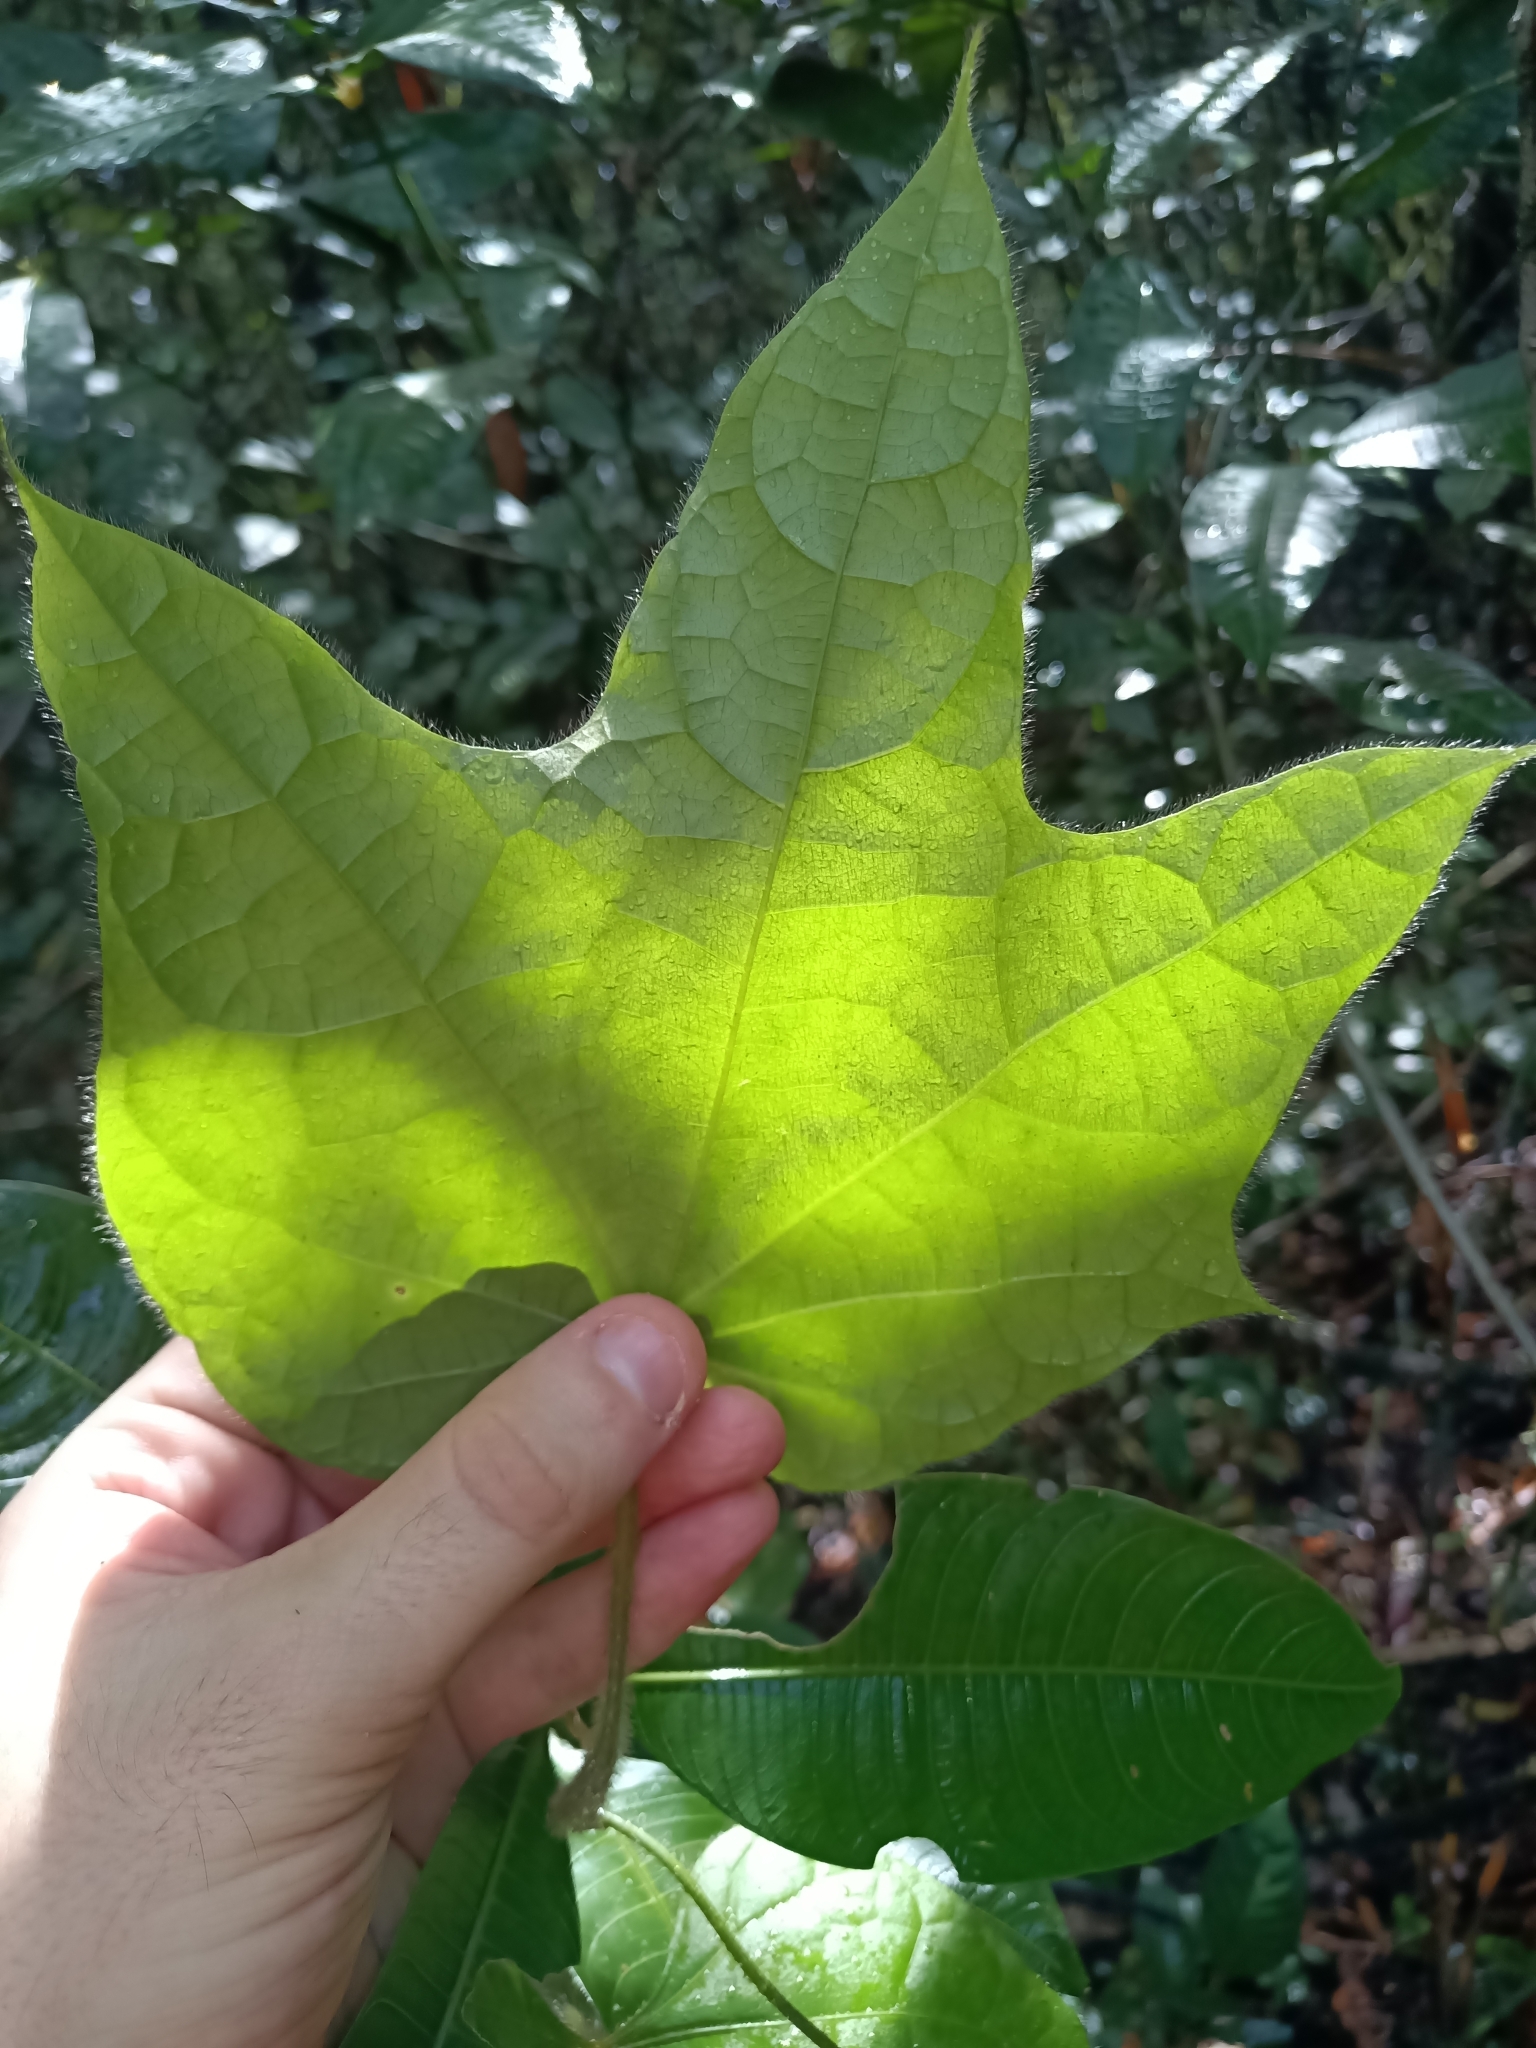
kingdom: Plantae
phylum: Tracheophyta
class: Magnoliopsida
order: Ranunculales
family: Menispermaceae
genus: Disciphania
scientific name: Disciphania lobata
